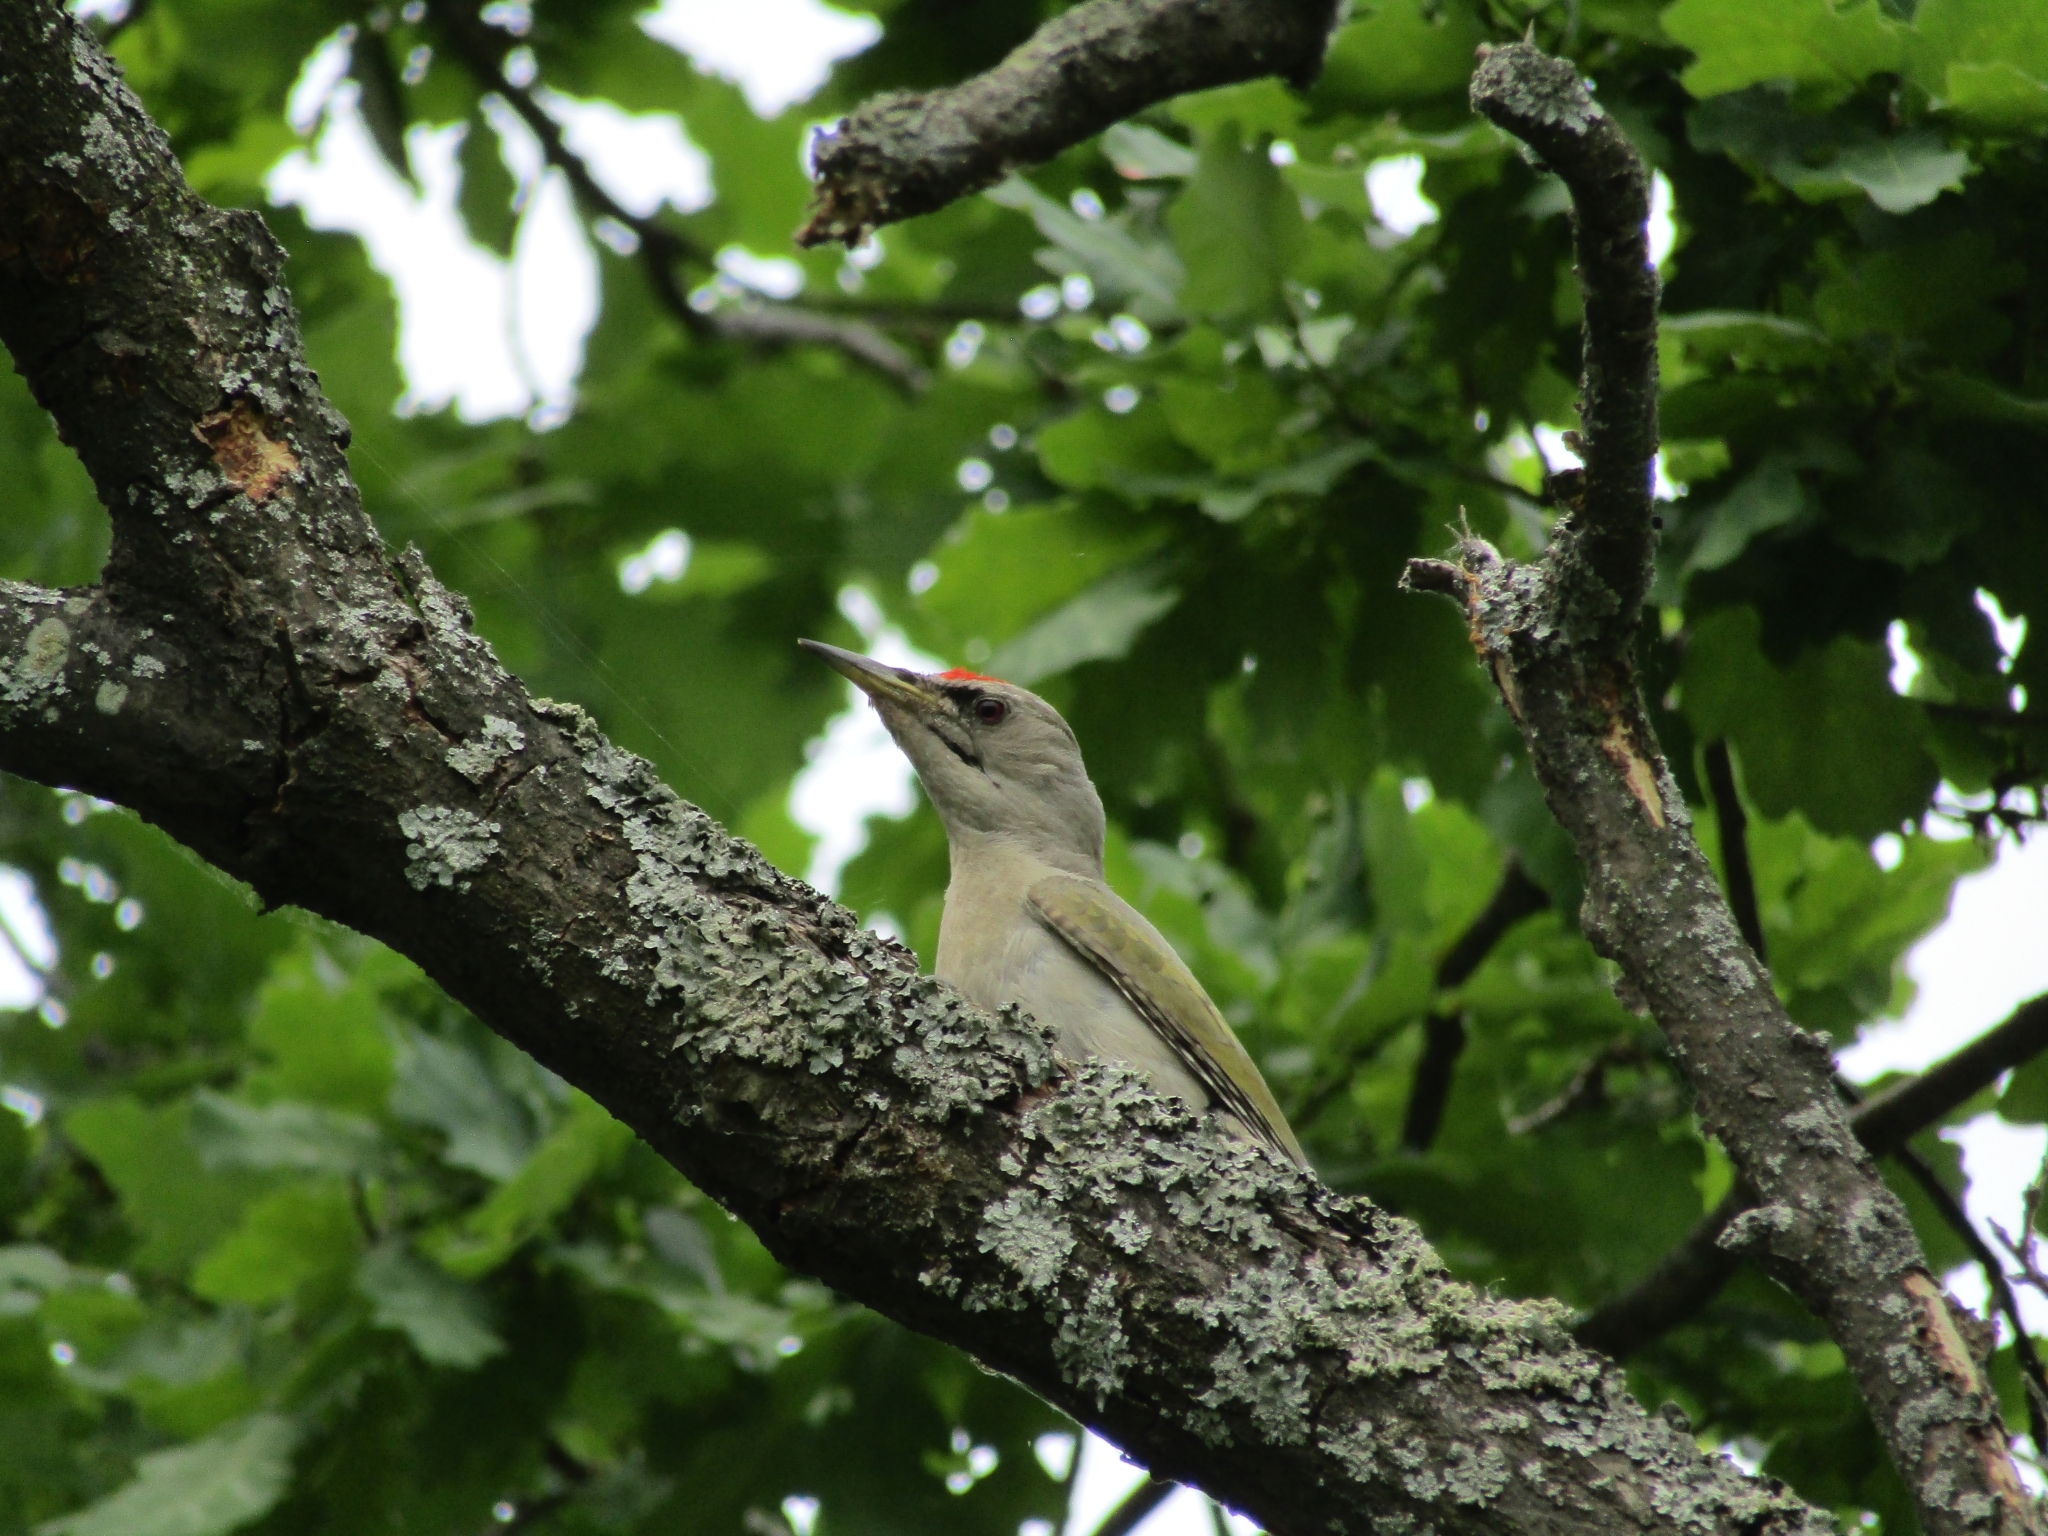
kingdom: Animalia
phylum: Chordata
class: Aves
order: Piciformes
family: Picidae
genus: Picus
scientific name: Picus canus
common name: Grey-headed woodpecker
